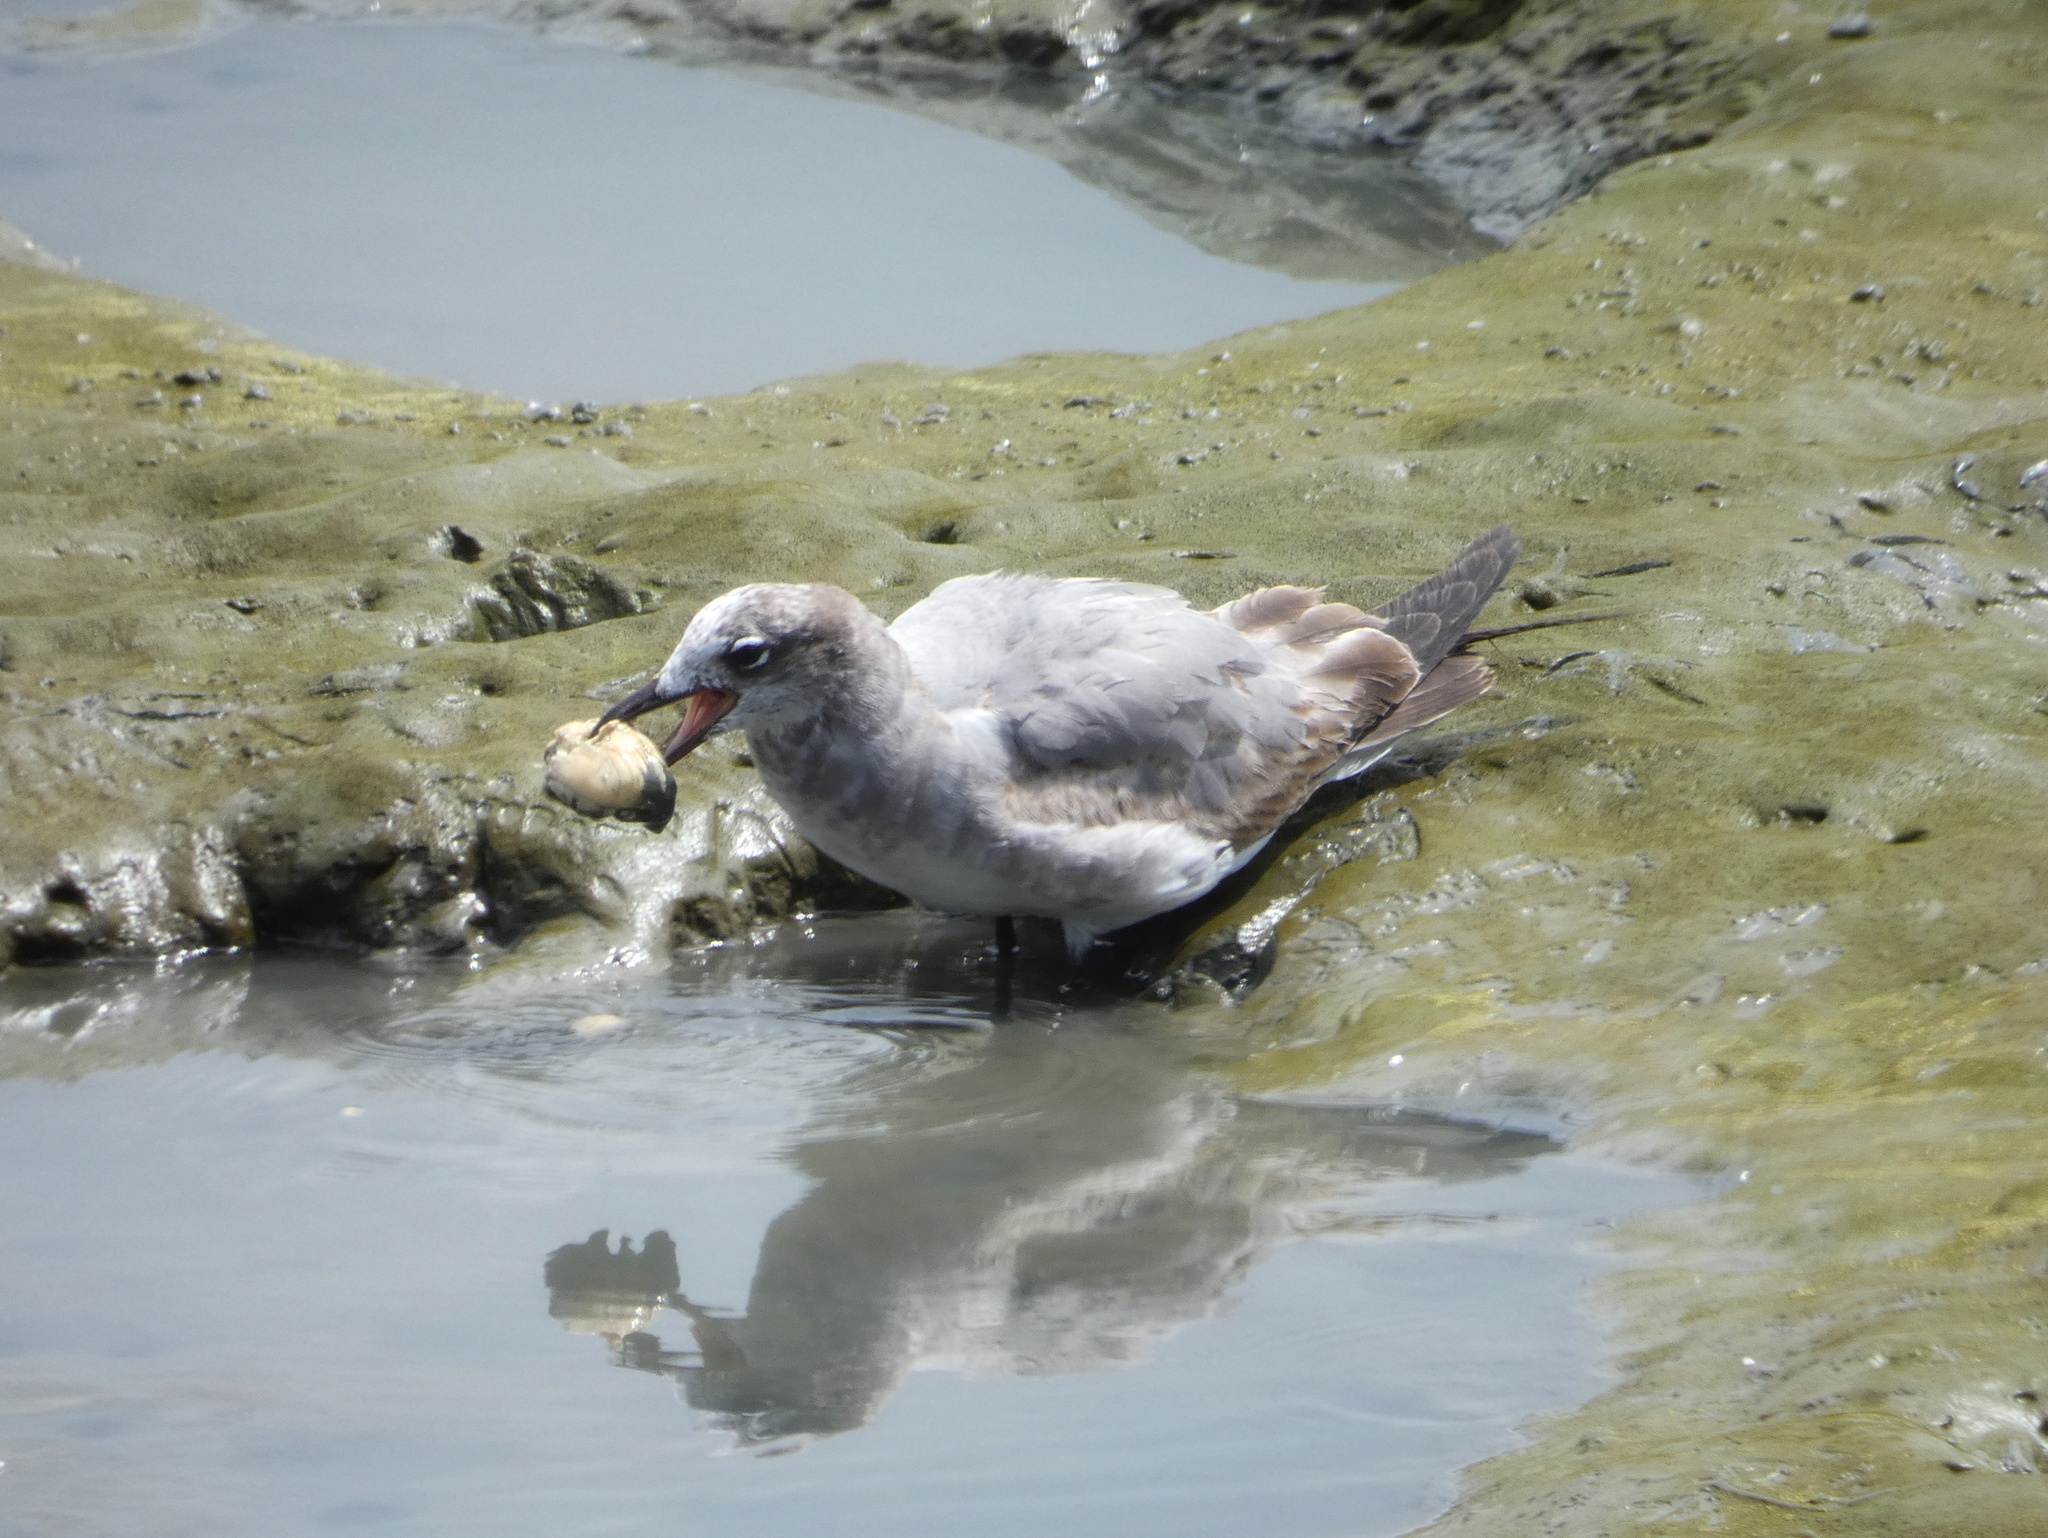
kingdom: Animalia
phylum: Chordata
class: Aves
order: Charadriiformes
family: Laridae
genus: Leucophaeus
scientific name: Leucophaeus atricilla
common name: Laughing gull
